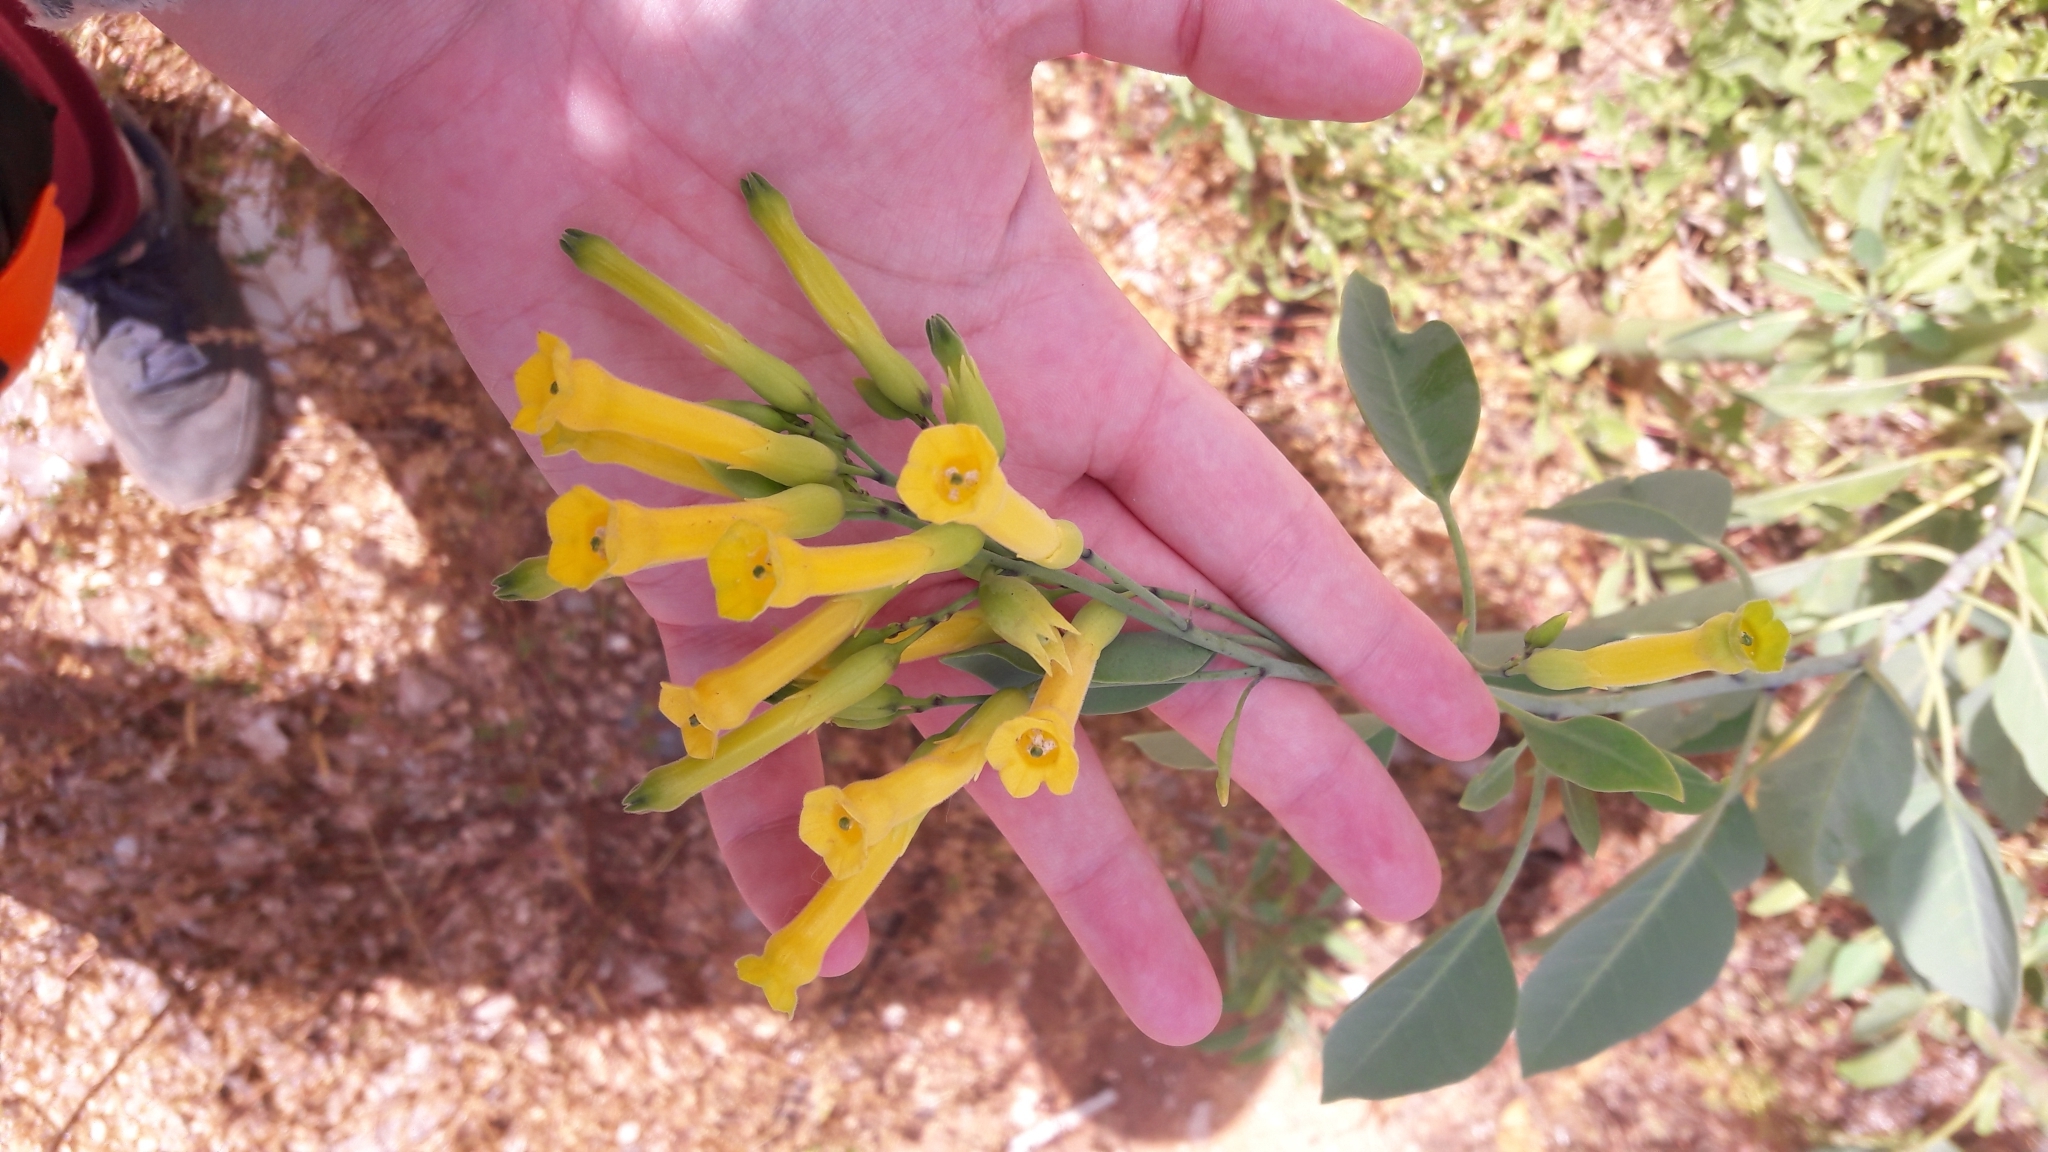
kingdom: Plantae
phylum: Tracheophyta
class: Magnoliopsida
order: Solanales
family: Solanaceae
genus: Nicotiana
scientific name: Nicotiana glauca
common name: Tree tobacco
